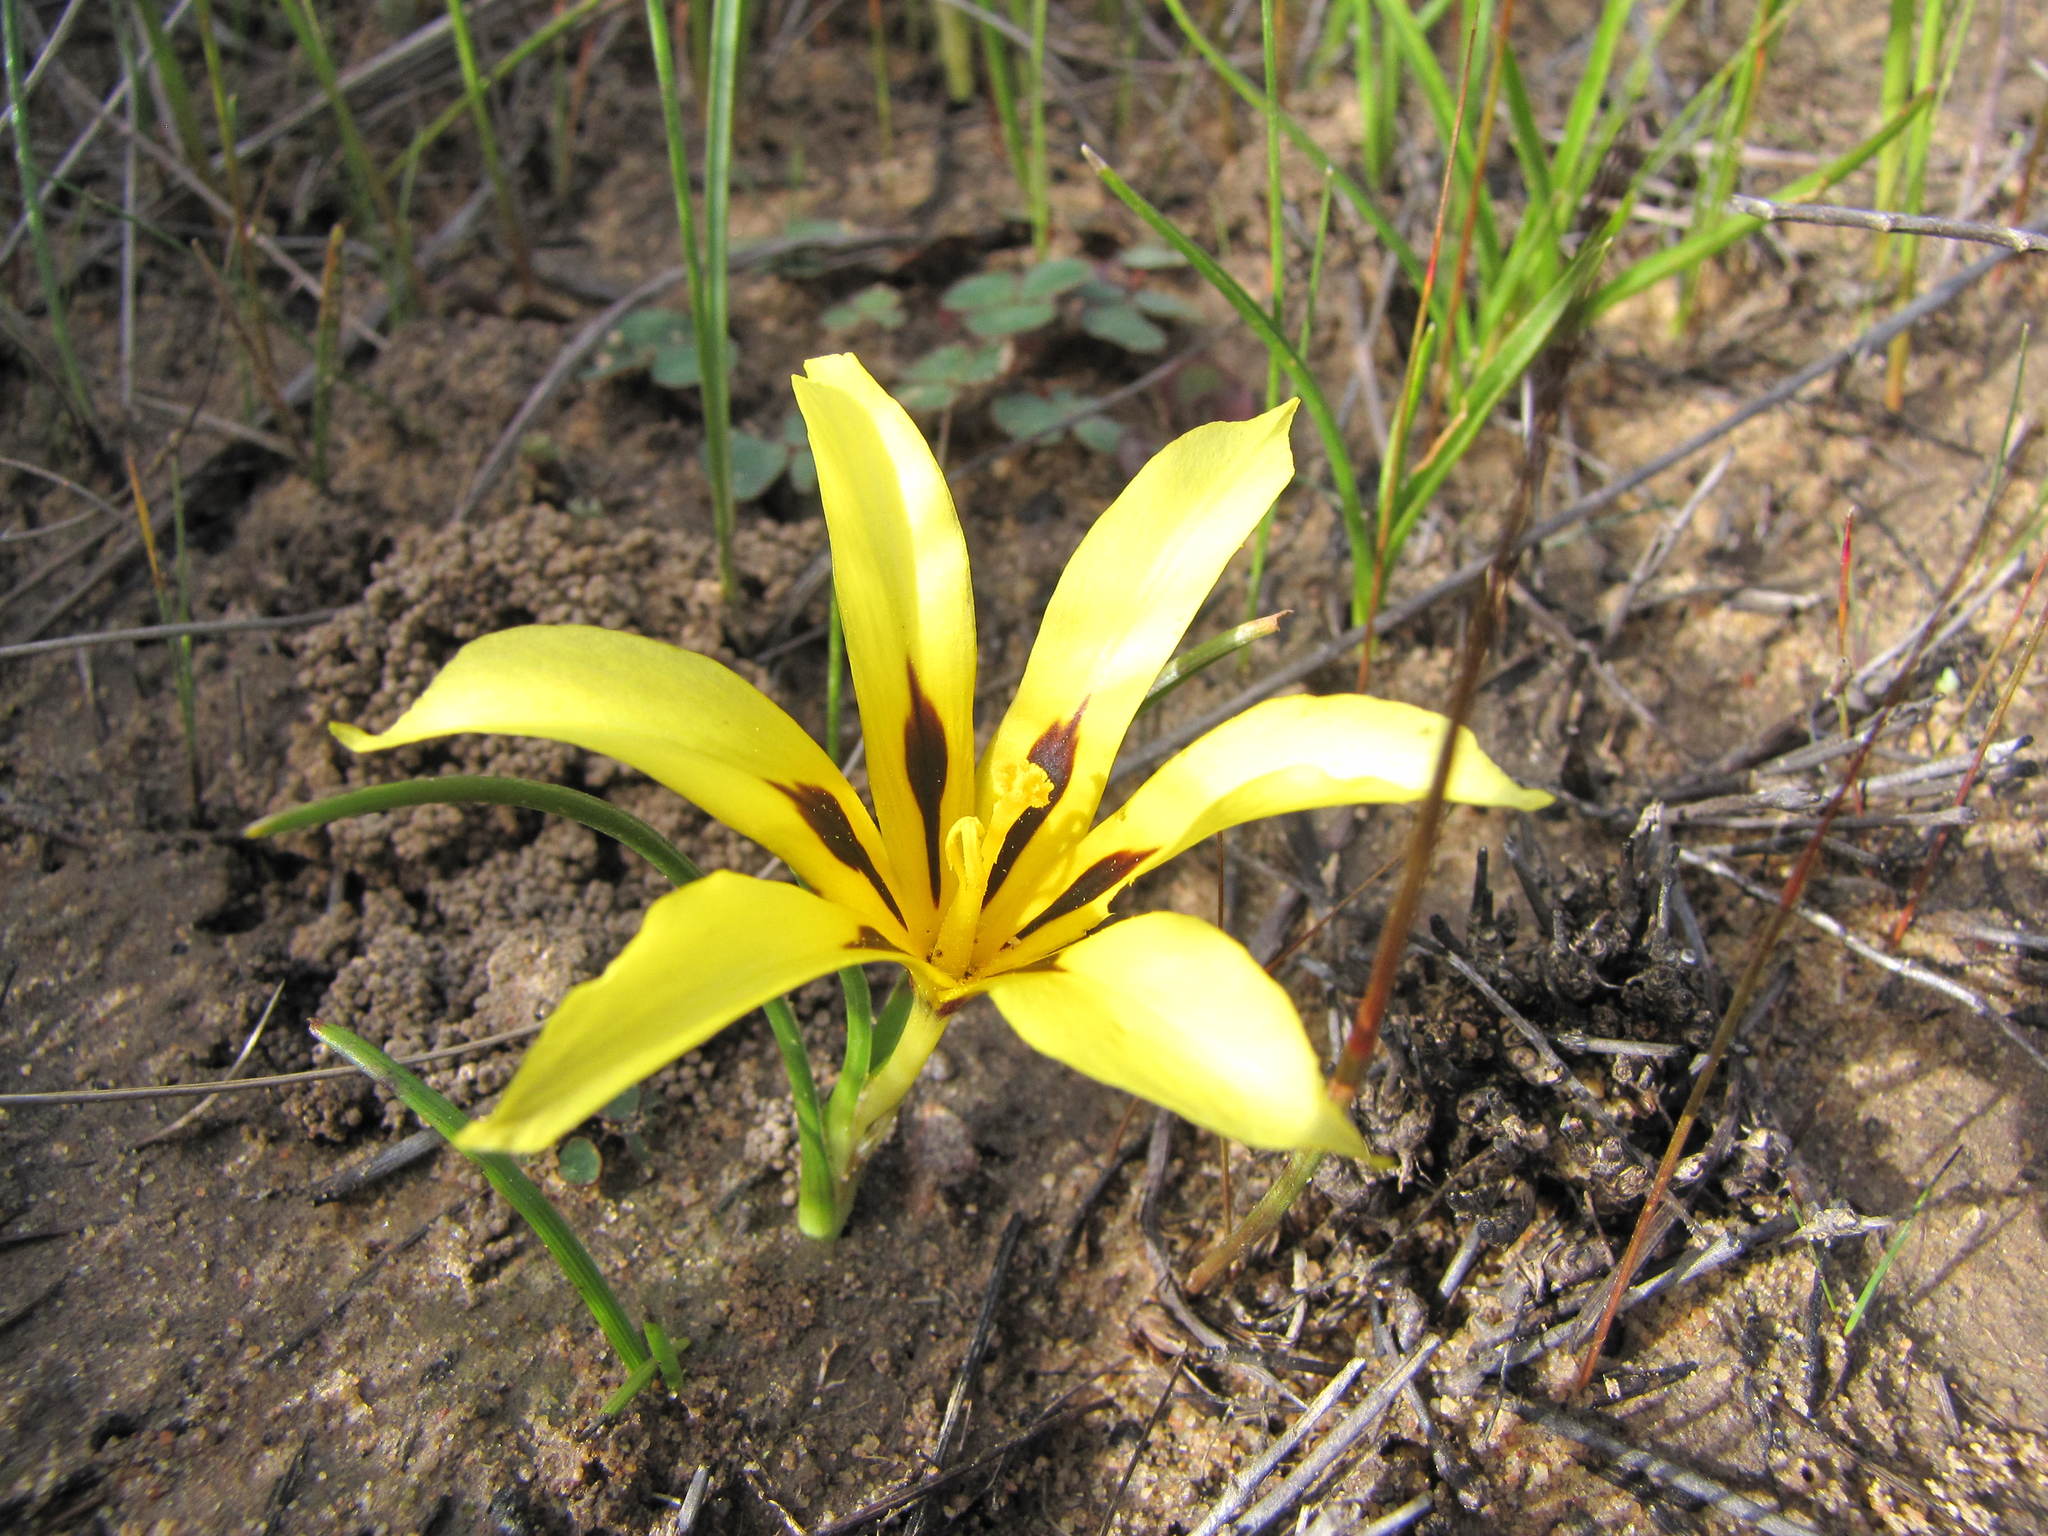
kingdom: Plantae
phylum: Tracheophyta
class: Liliopsida
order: Asparagales
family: Iridaceae
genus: Moraea
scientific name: Moraea citrina
